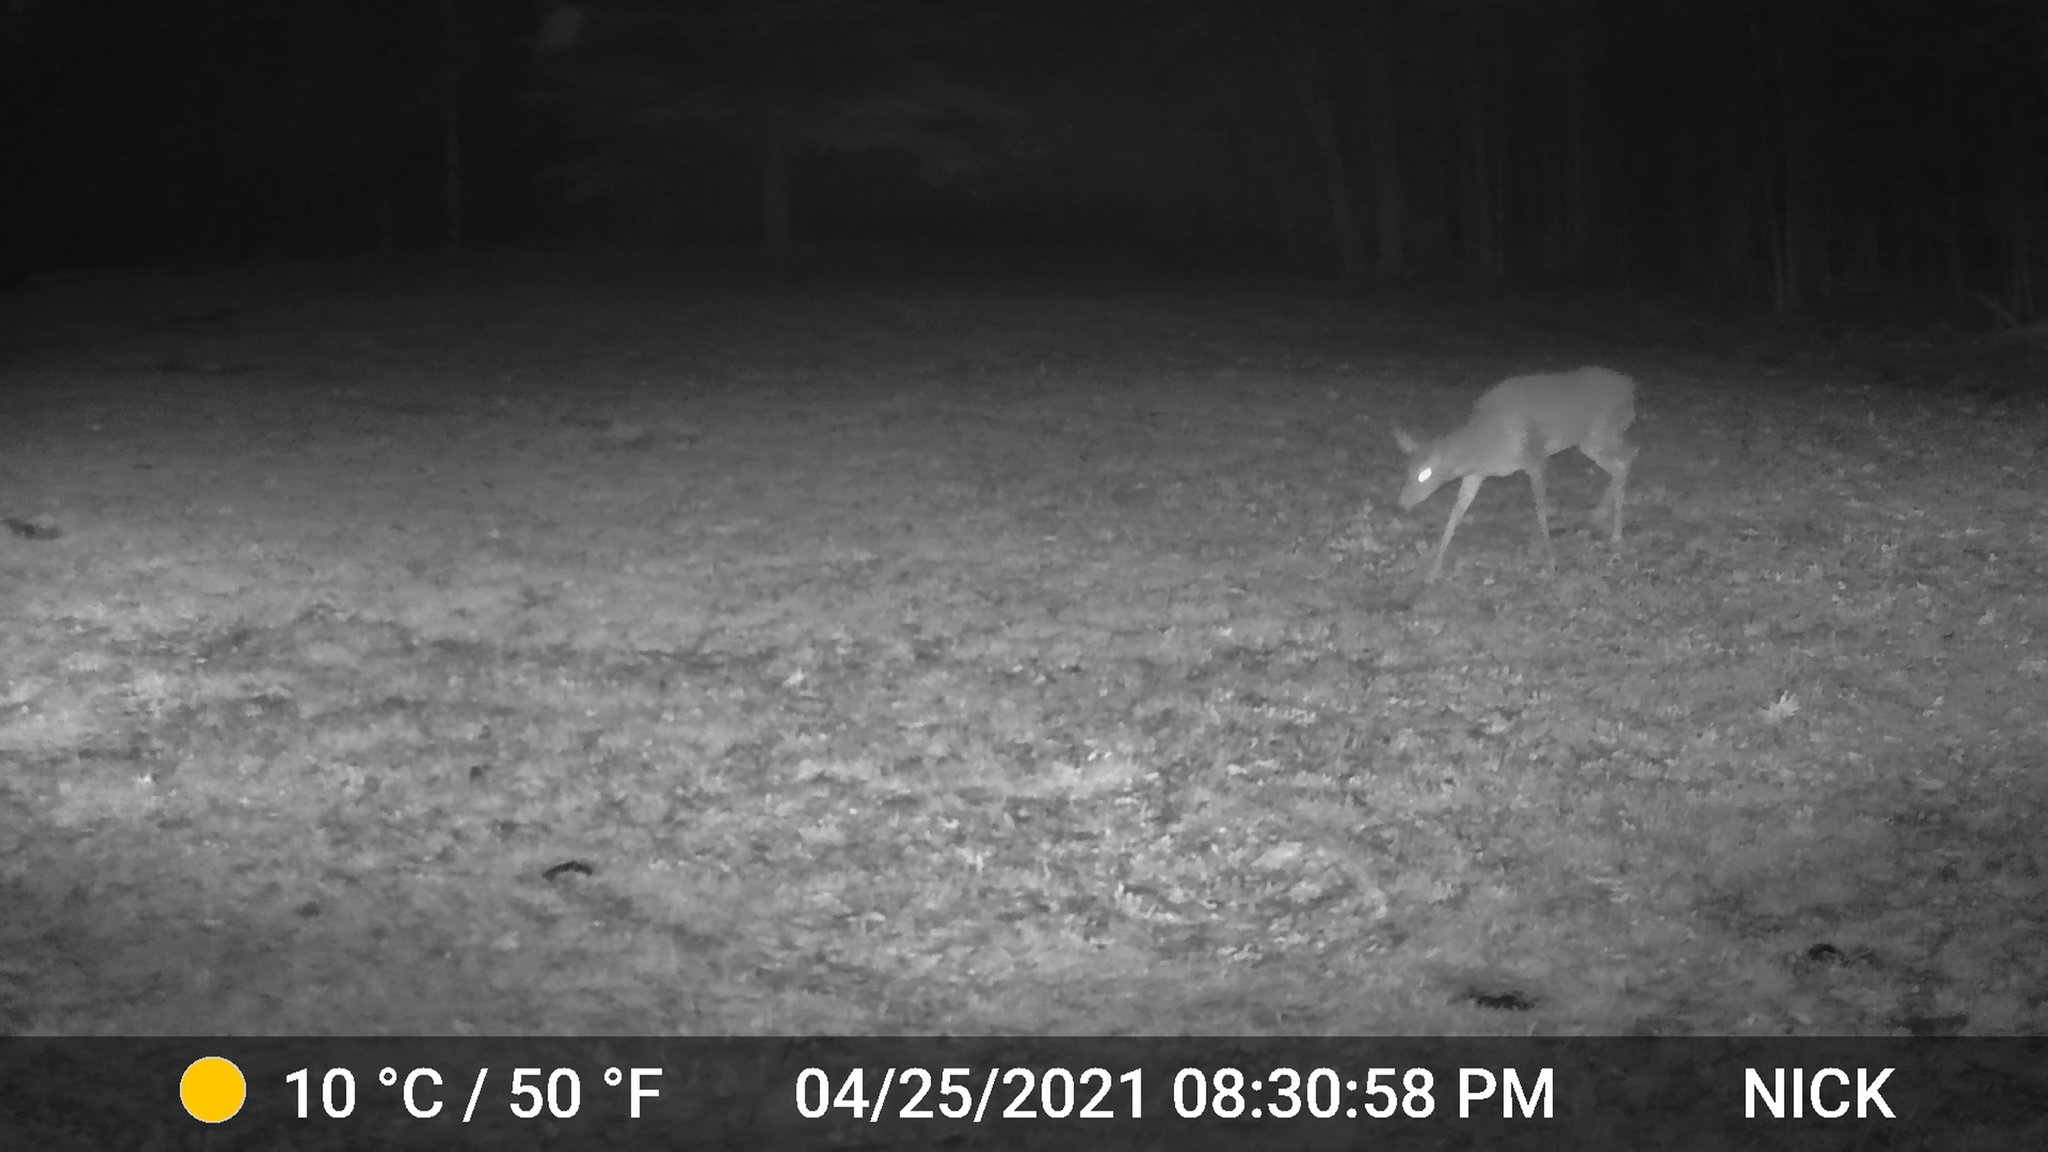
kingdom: Animalia
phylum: Chordata
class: Mammalia
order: Artiodactyla
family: Cervidae
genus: Odocoileus
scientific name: Odocoileus virginianus
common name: White-tailed deer
